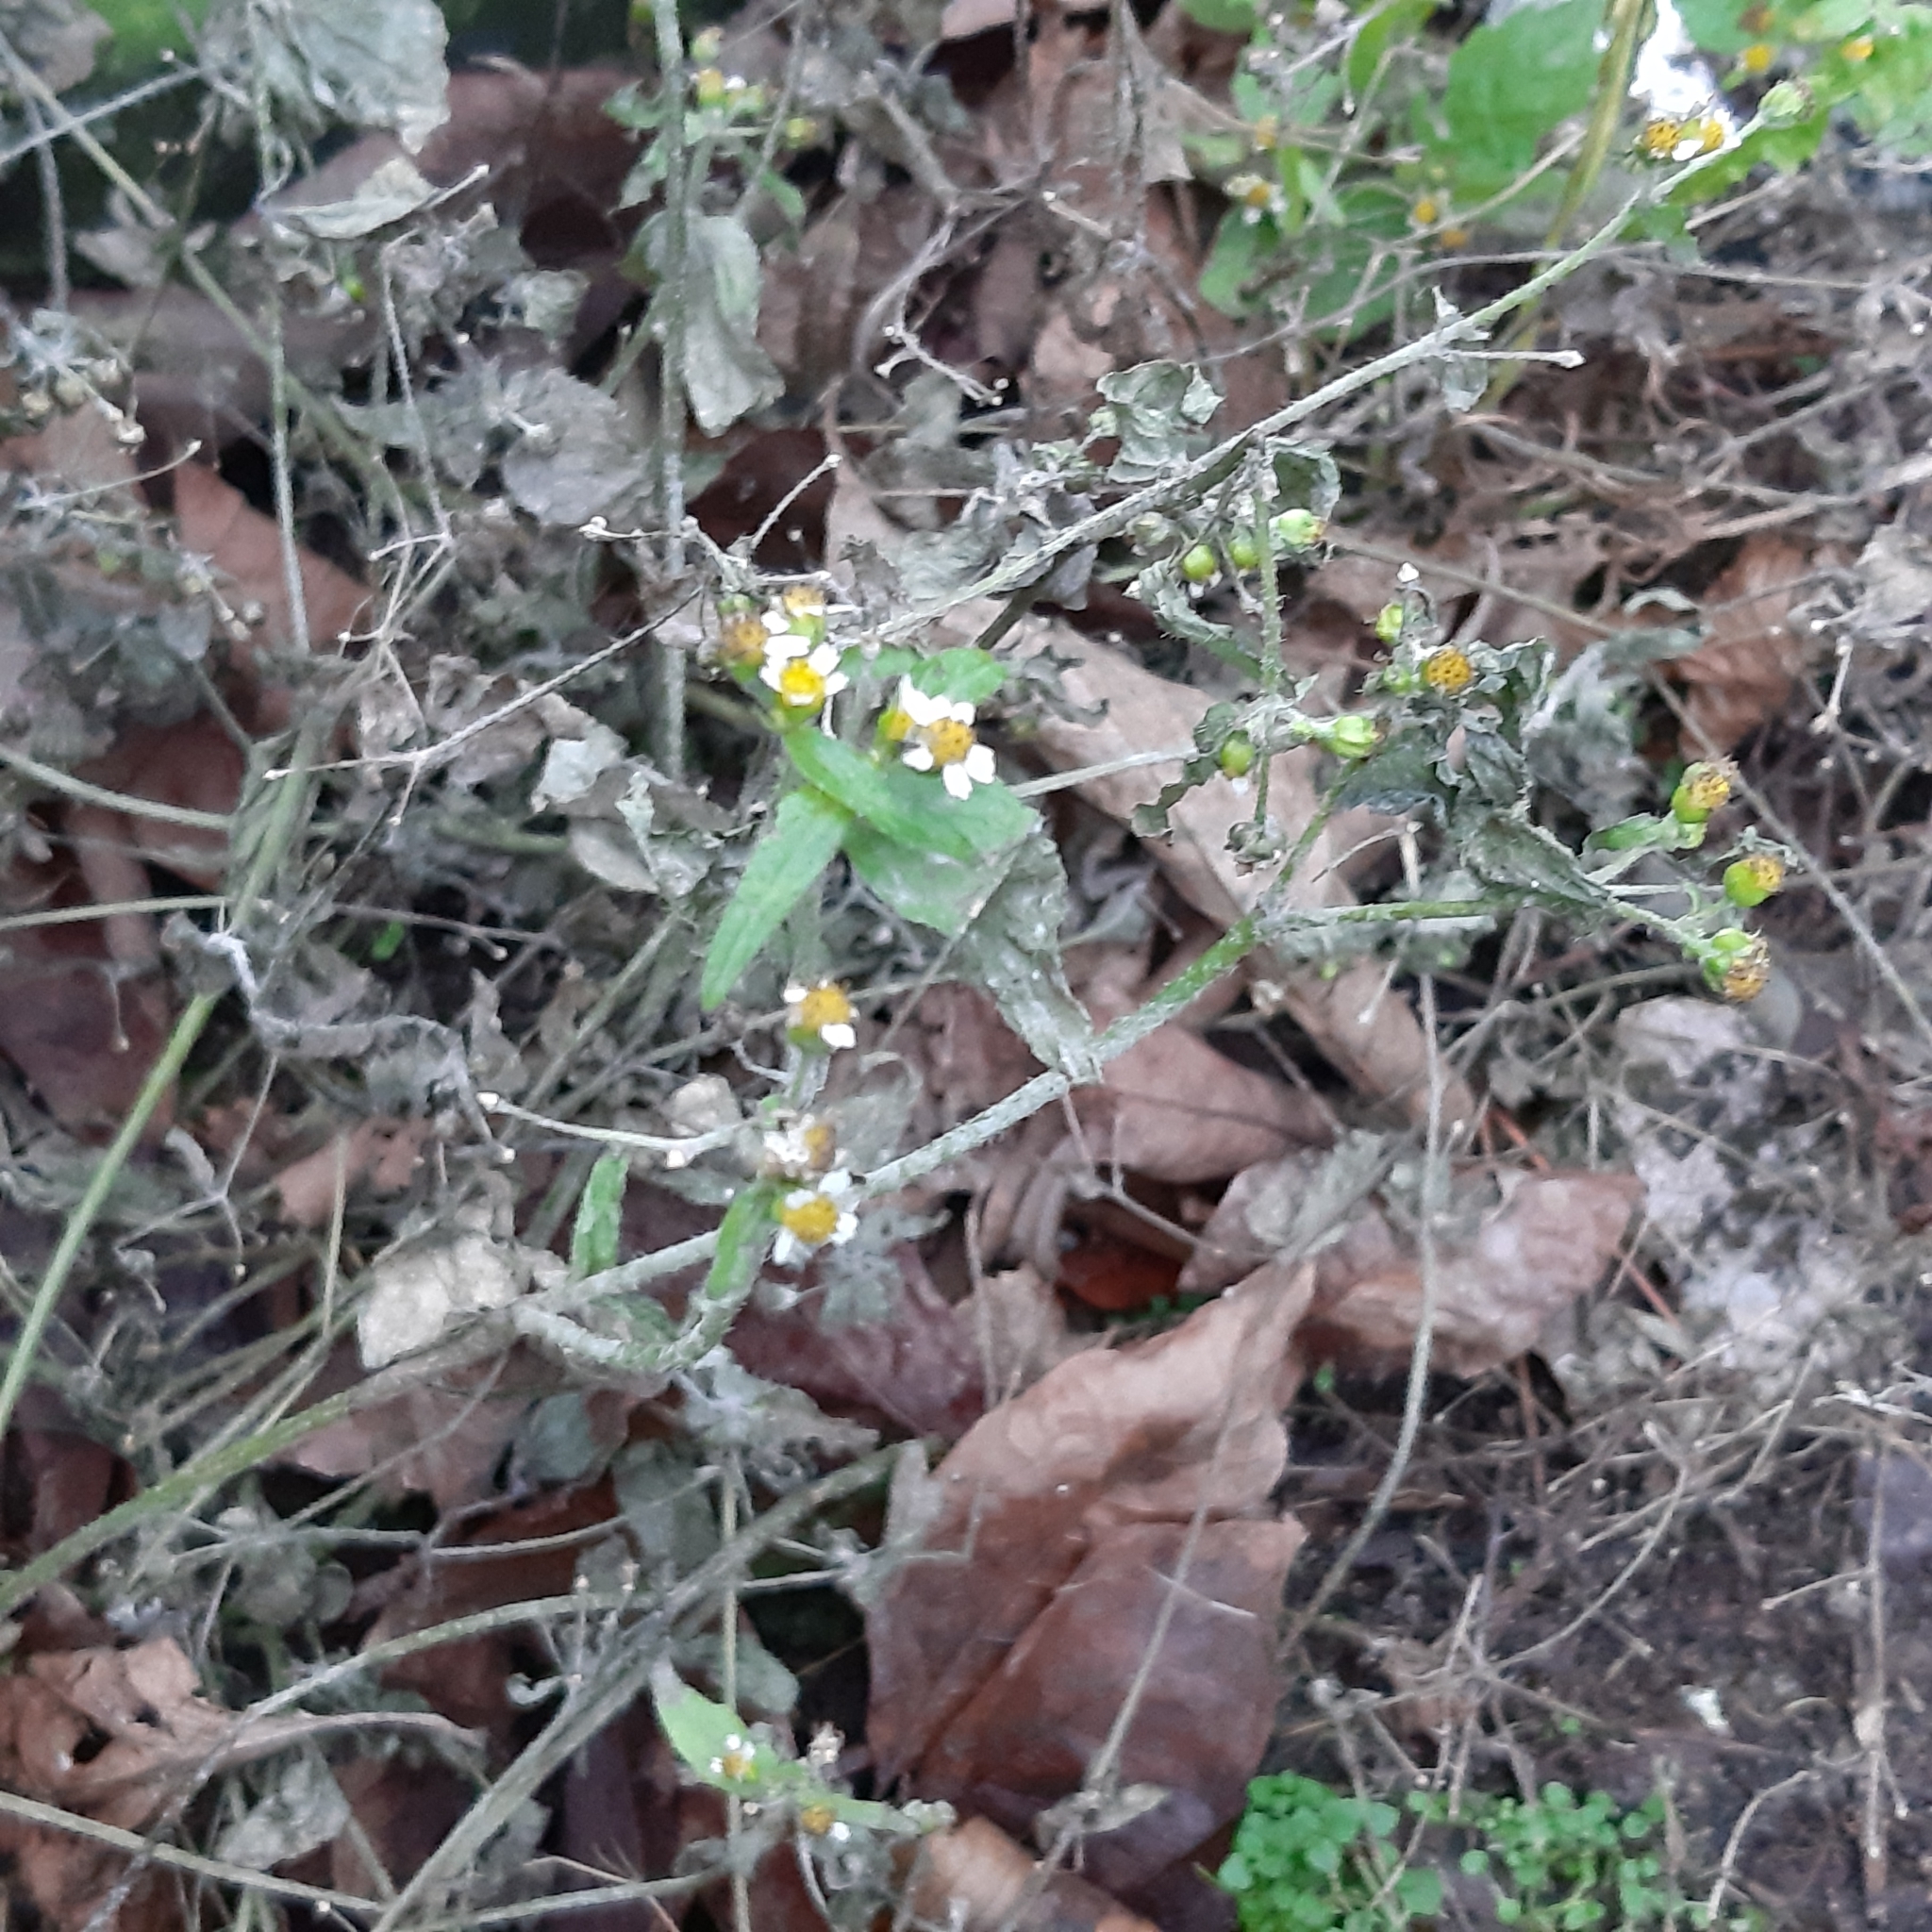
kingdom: Plantae
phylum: Tracheophyta
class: Magnoliopsida
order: Asterales
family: Asteraceae
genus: Galinsoga
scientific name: Galinsoga quadriradiata
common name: Shaggy soldier
